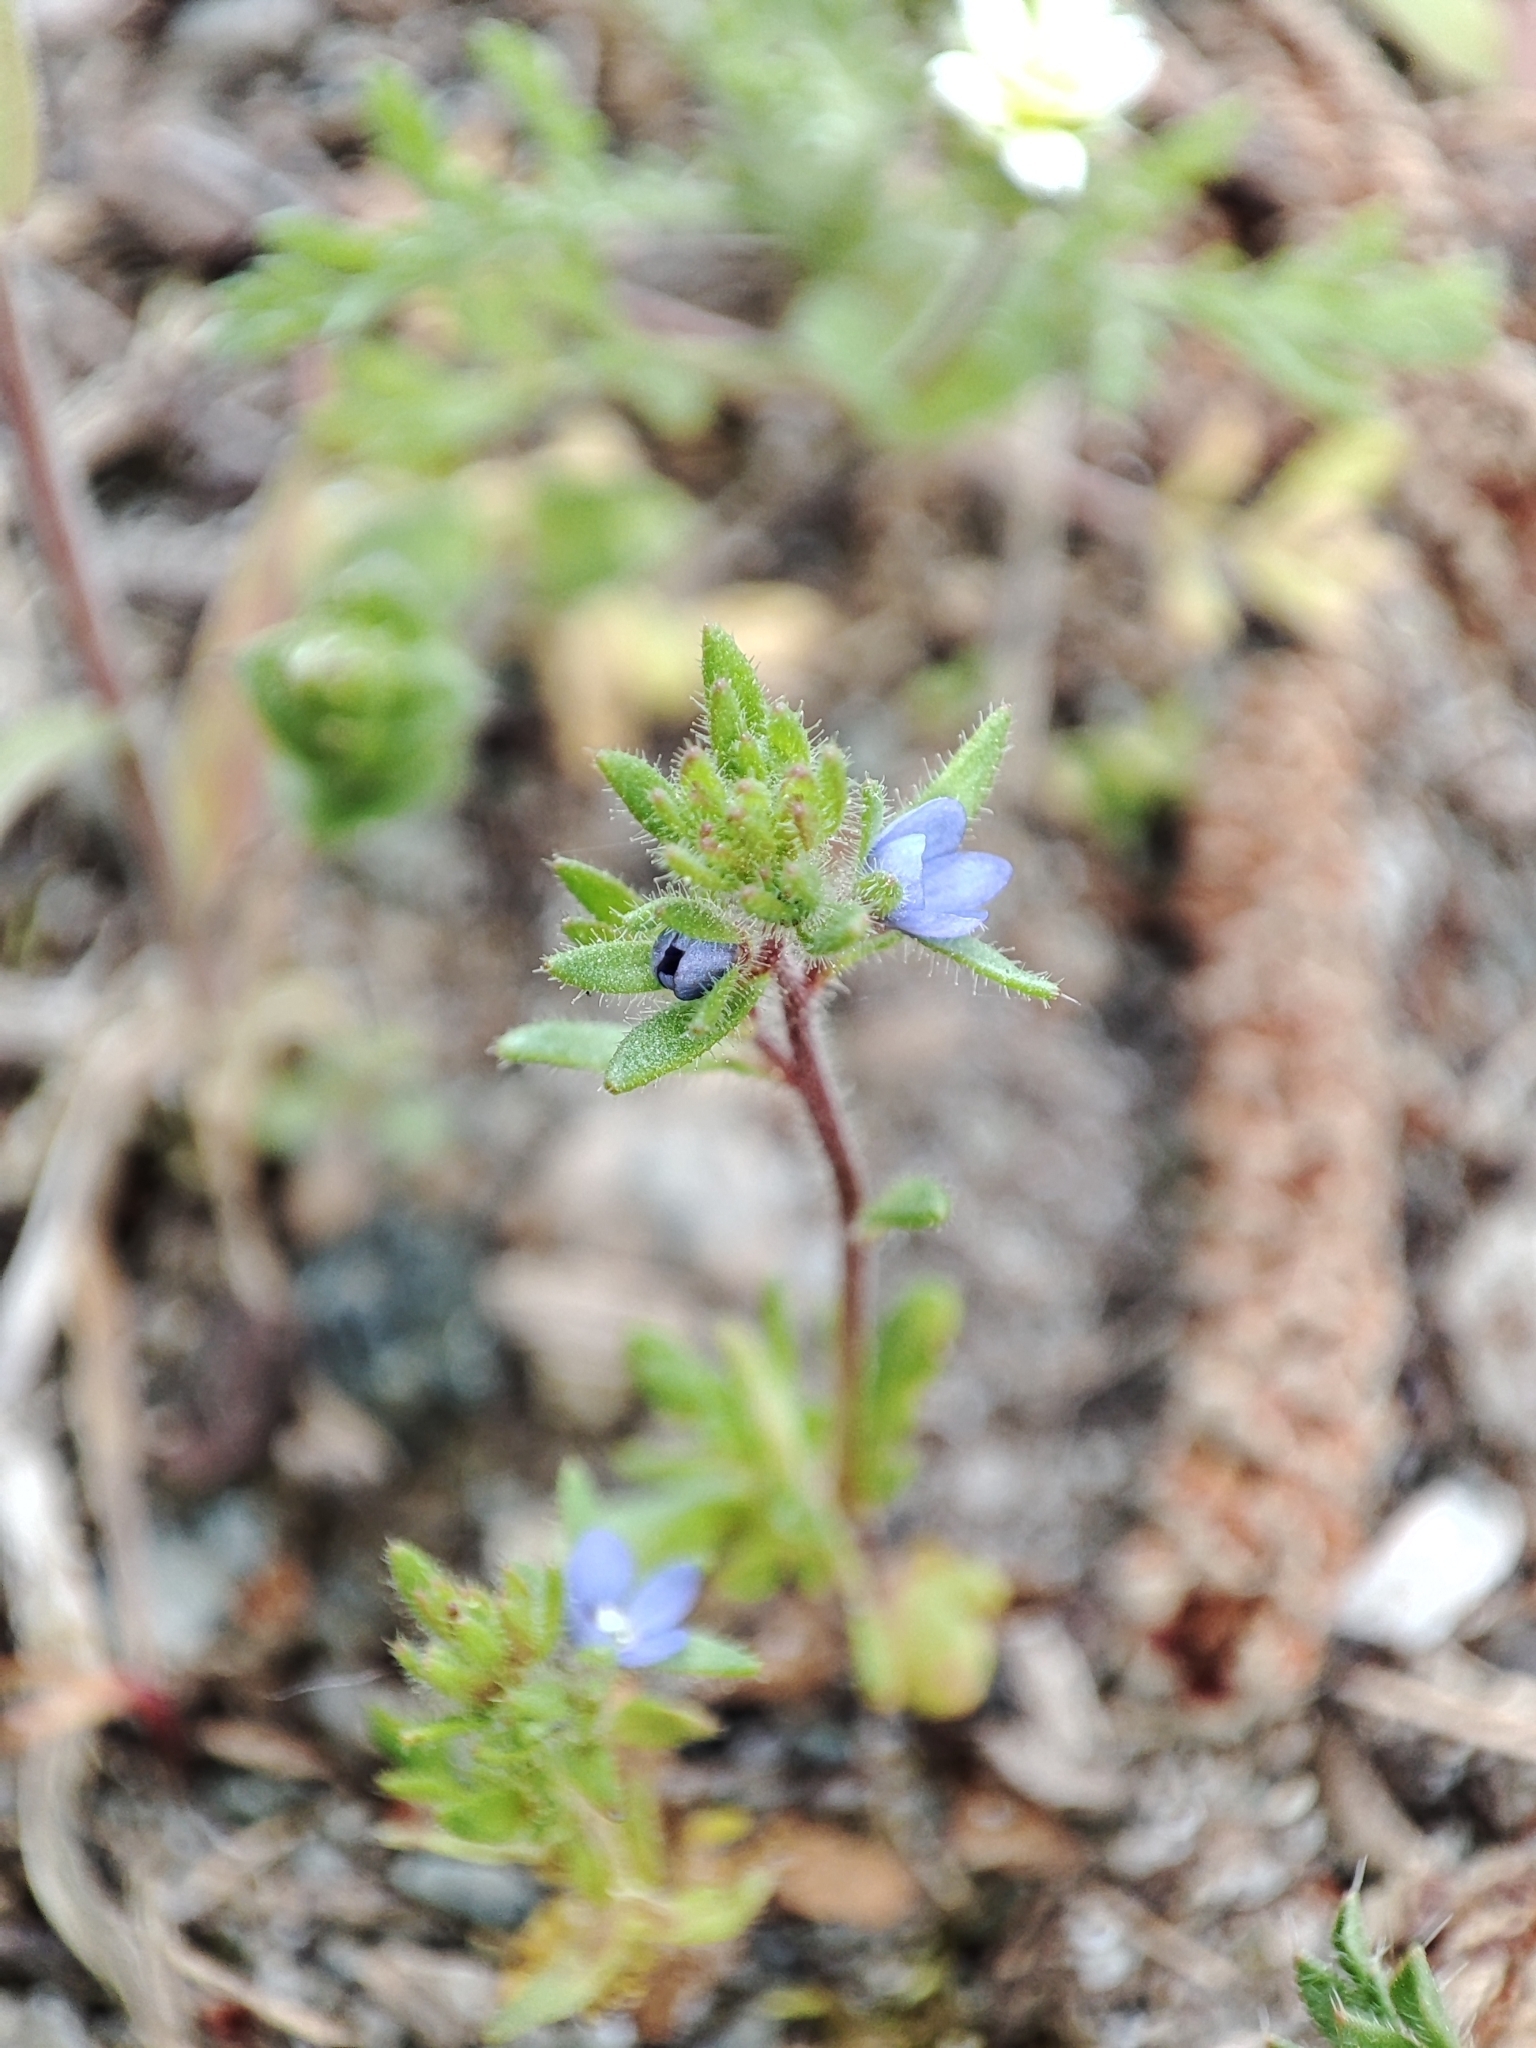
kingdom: Plantae
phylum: Tracheophyta
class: Magnoliopsida
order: Lamiales
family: Plantaginaceae
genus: Veronica
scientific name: Veronica verna
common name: Spring speedwell
